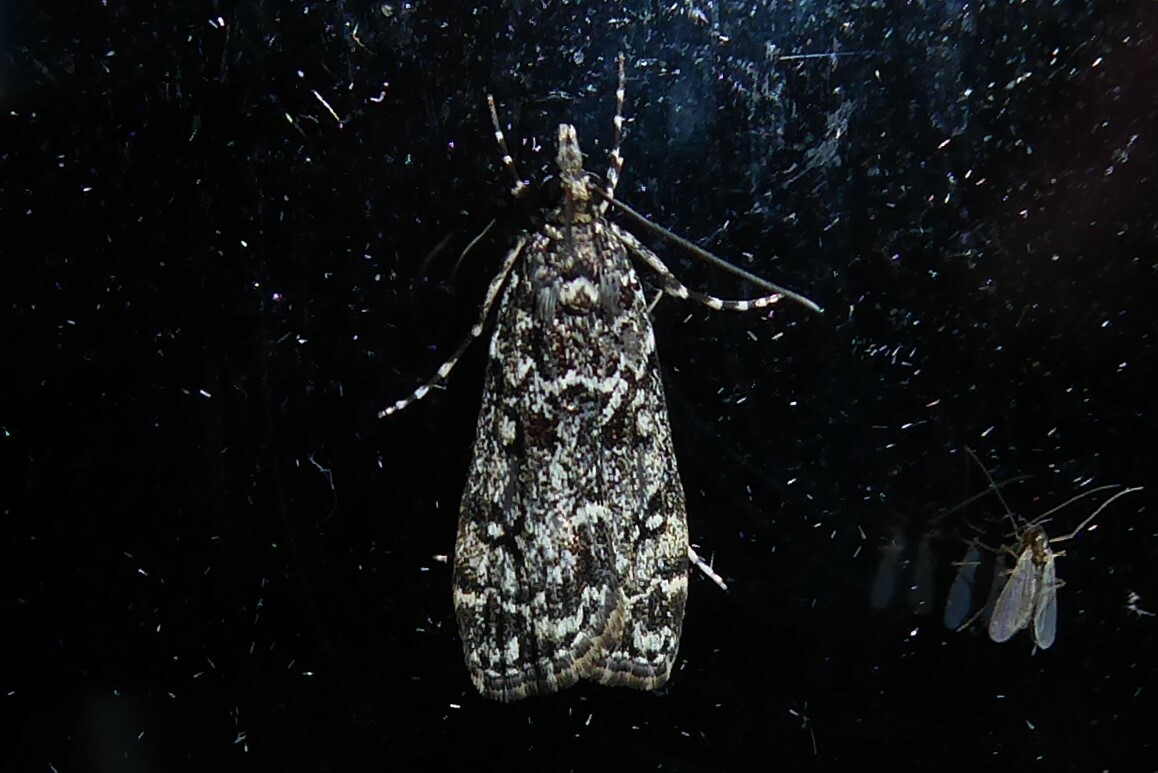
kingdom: Animalia
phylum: Arthropoda
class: Insecta
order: Lepidoptera
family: Crambidae
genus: Eudonia
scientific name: Eudonia philerga
